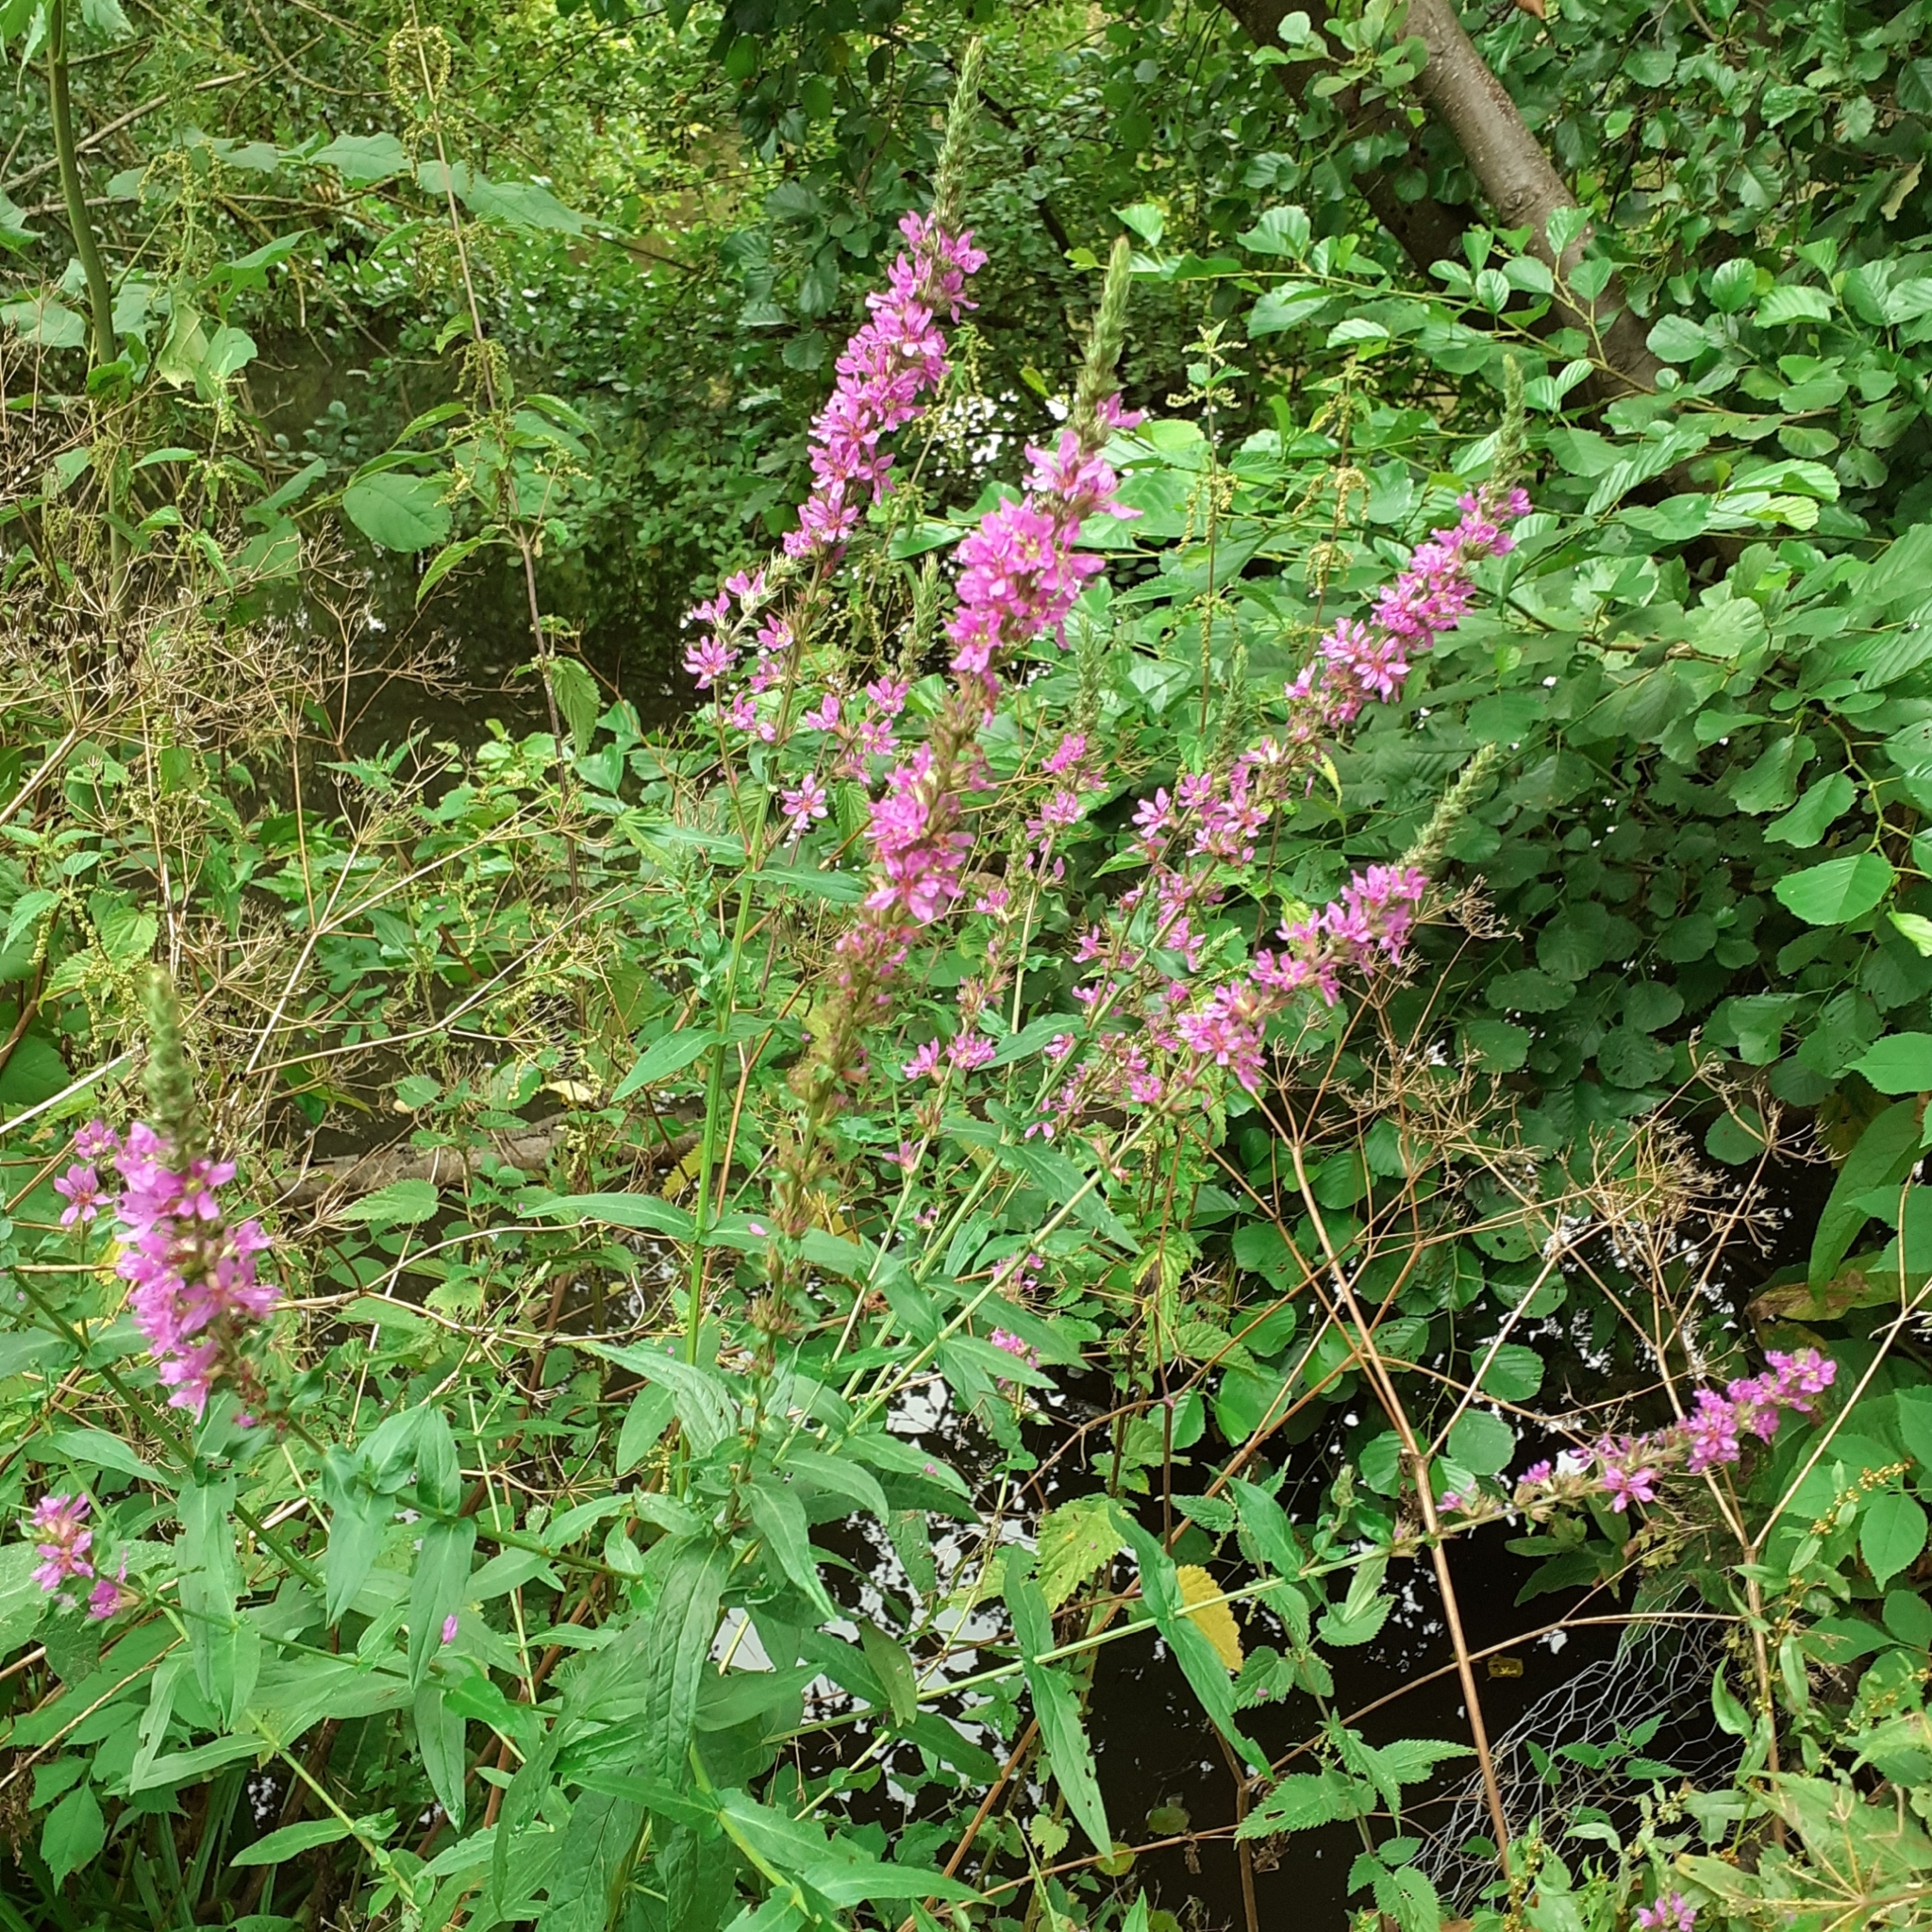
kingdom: Plantae
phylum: Tracheophyta
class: Magnoliopsida
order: Myrtales
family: Lythraceae
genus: Lythrum
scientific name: Lythrum salicaria
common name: Purple loosestrife
